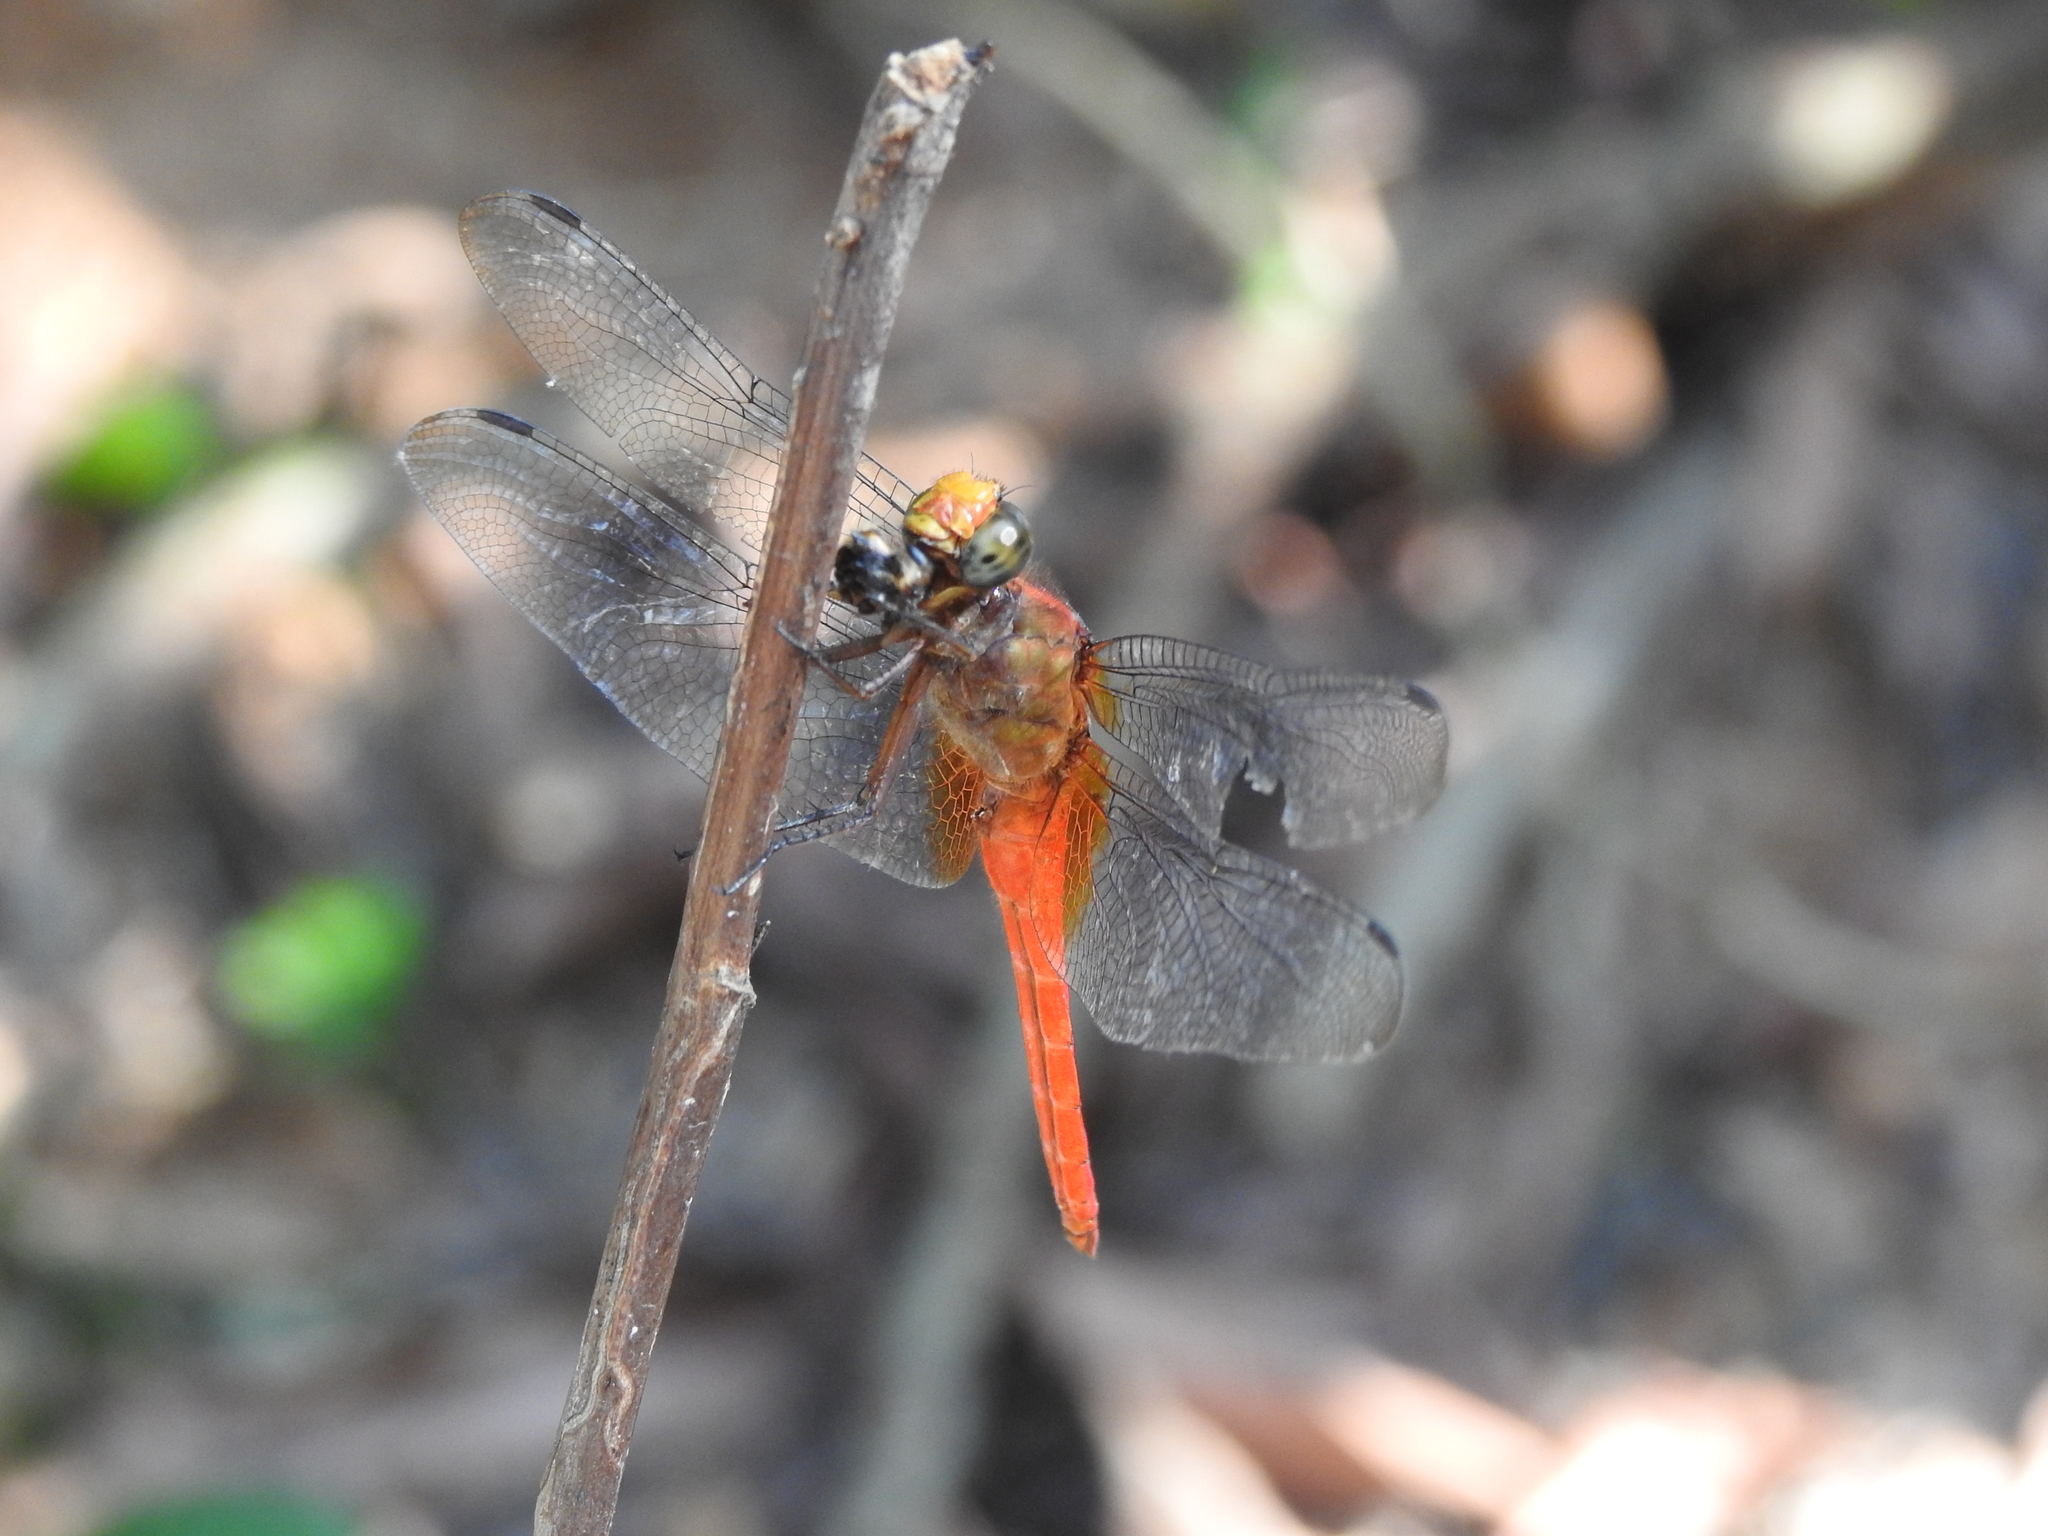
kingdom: Animalia
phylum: Arthropoda
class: Insecta
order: Odonata
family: Libellulidae
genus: Orthetrum
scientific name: Orthetrum testaceum
